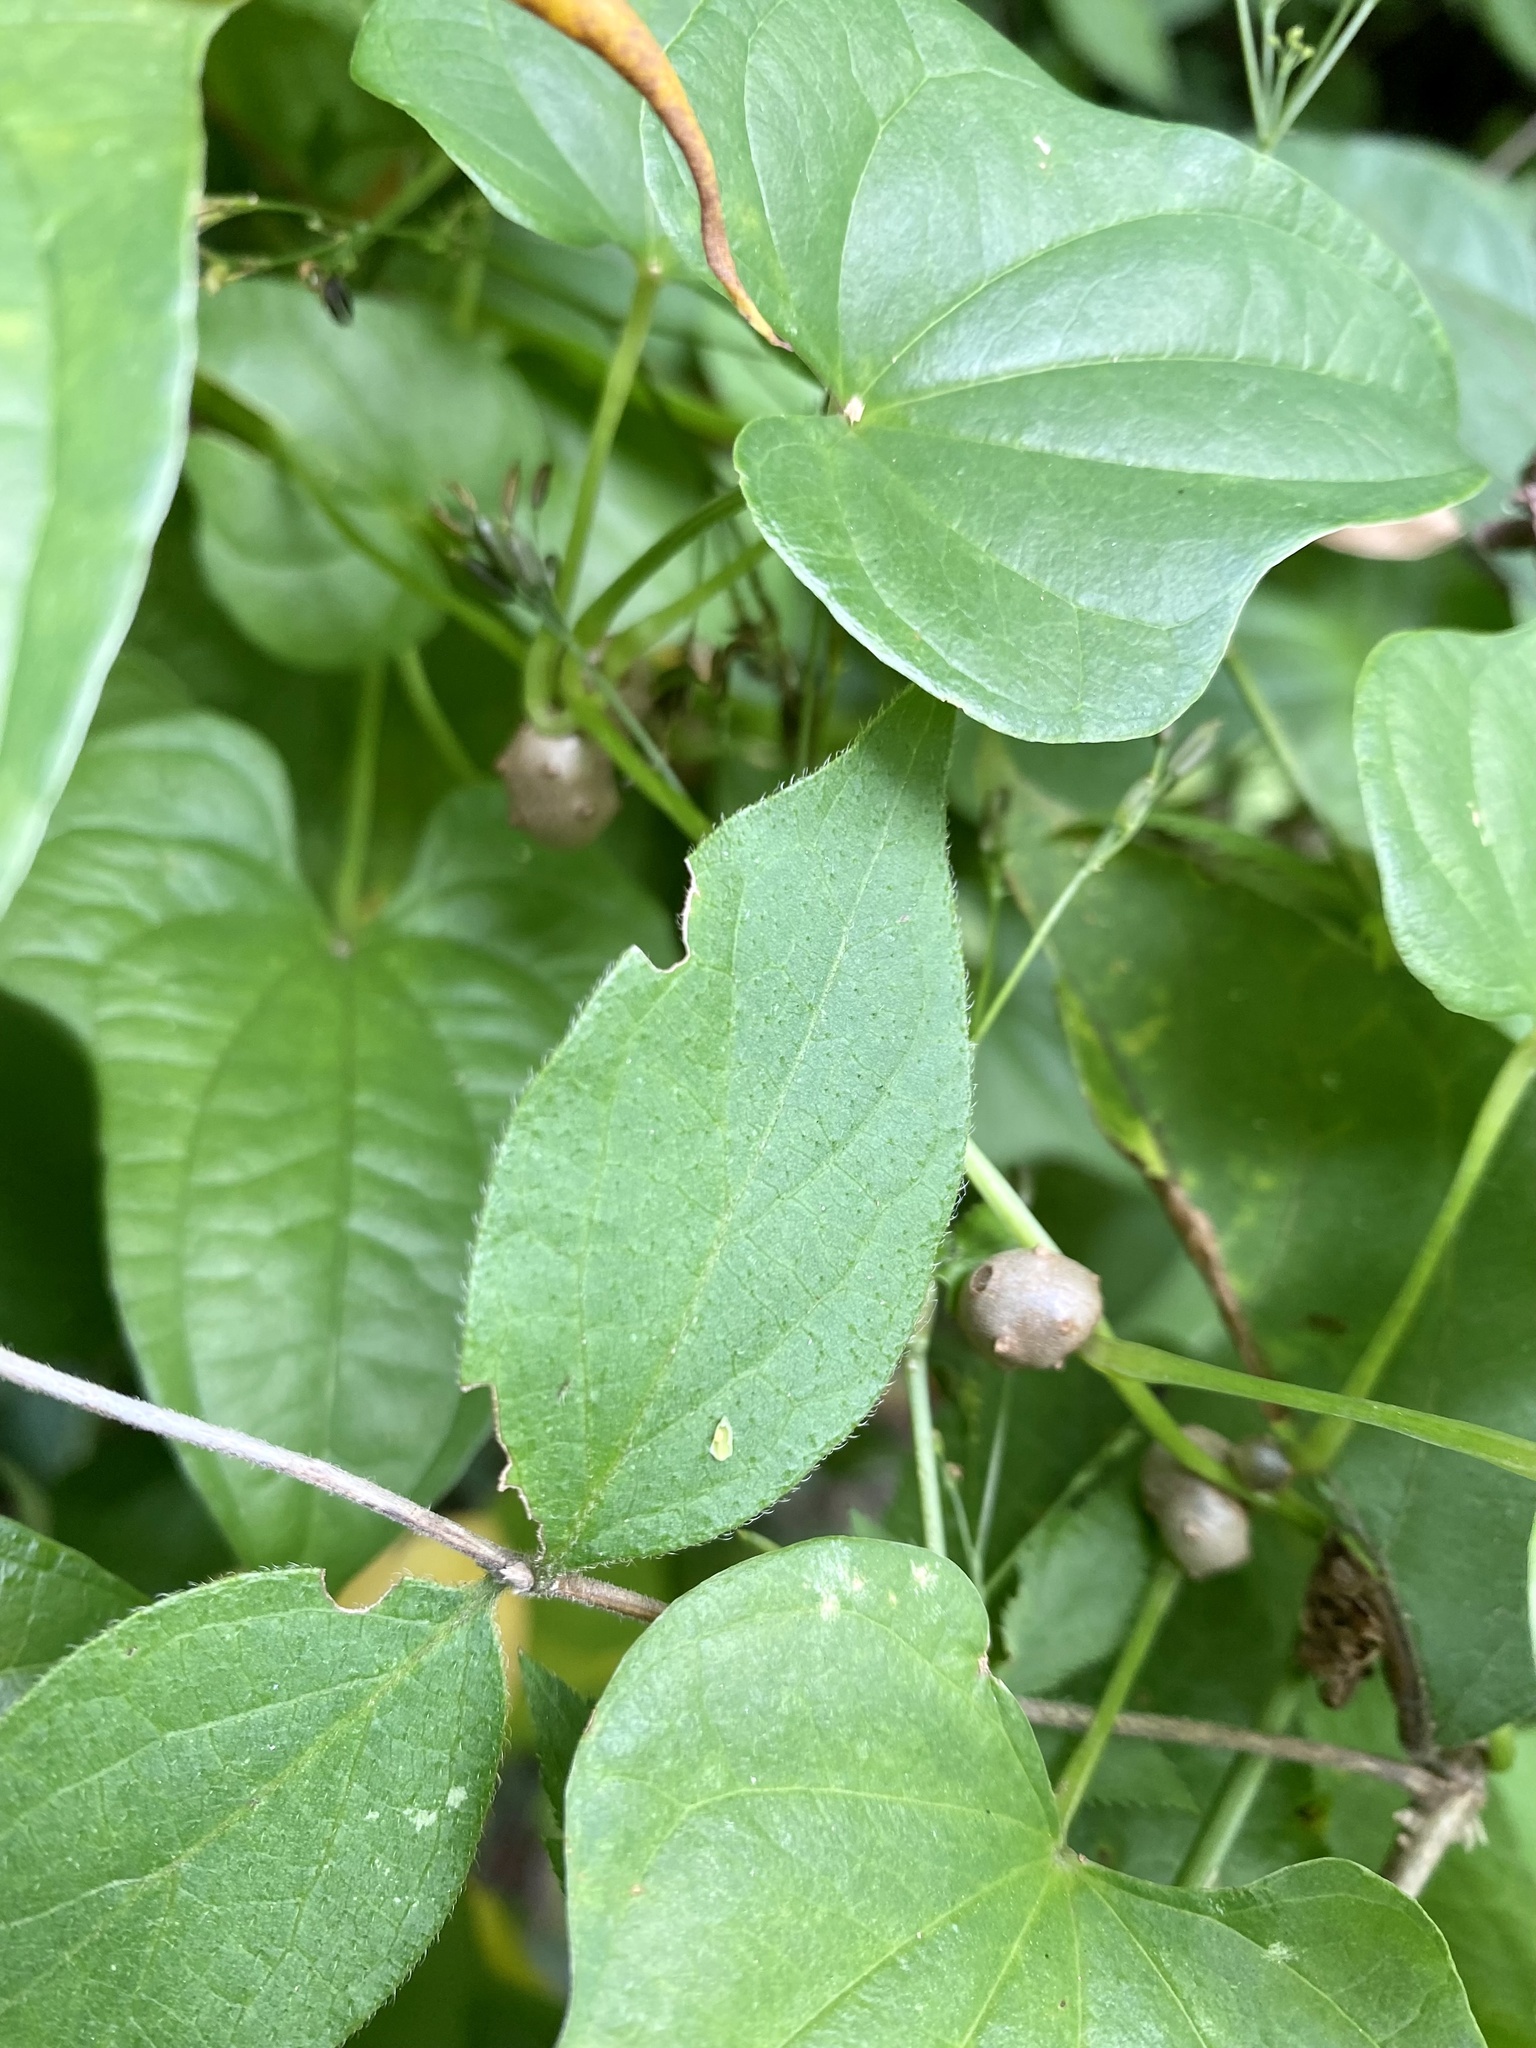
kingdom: Plantae
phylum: Tracheophyta
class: Liliopsida
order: Dioscoreales
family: Dioscoreaceae
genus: Dioscorea
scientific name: Dioscorea polystachya
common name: Chinese yam
